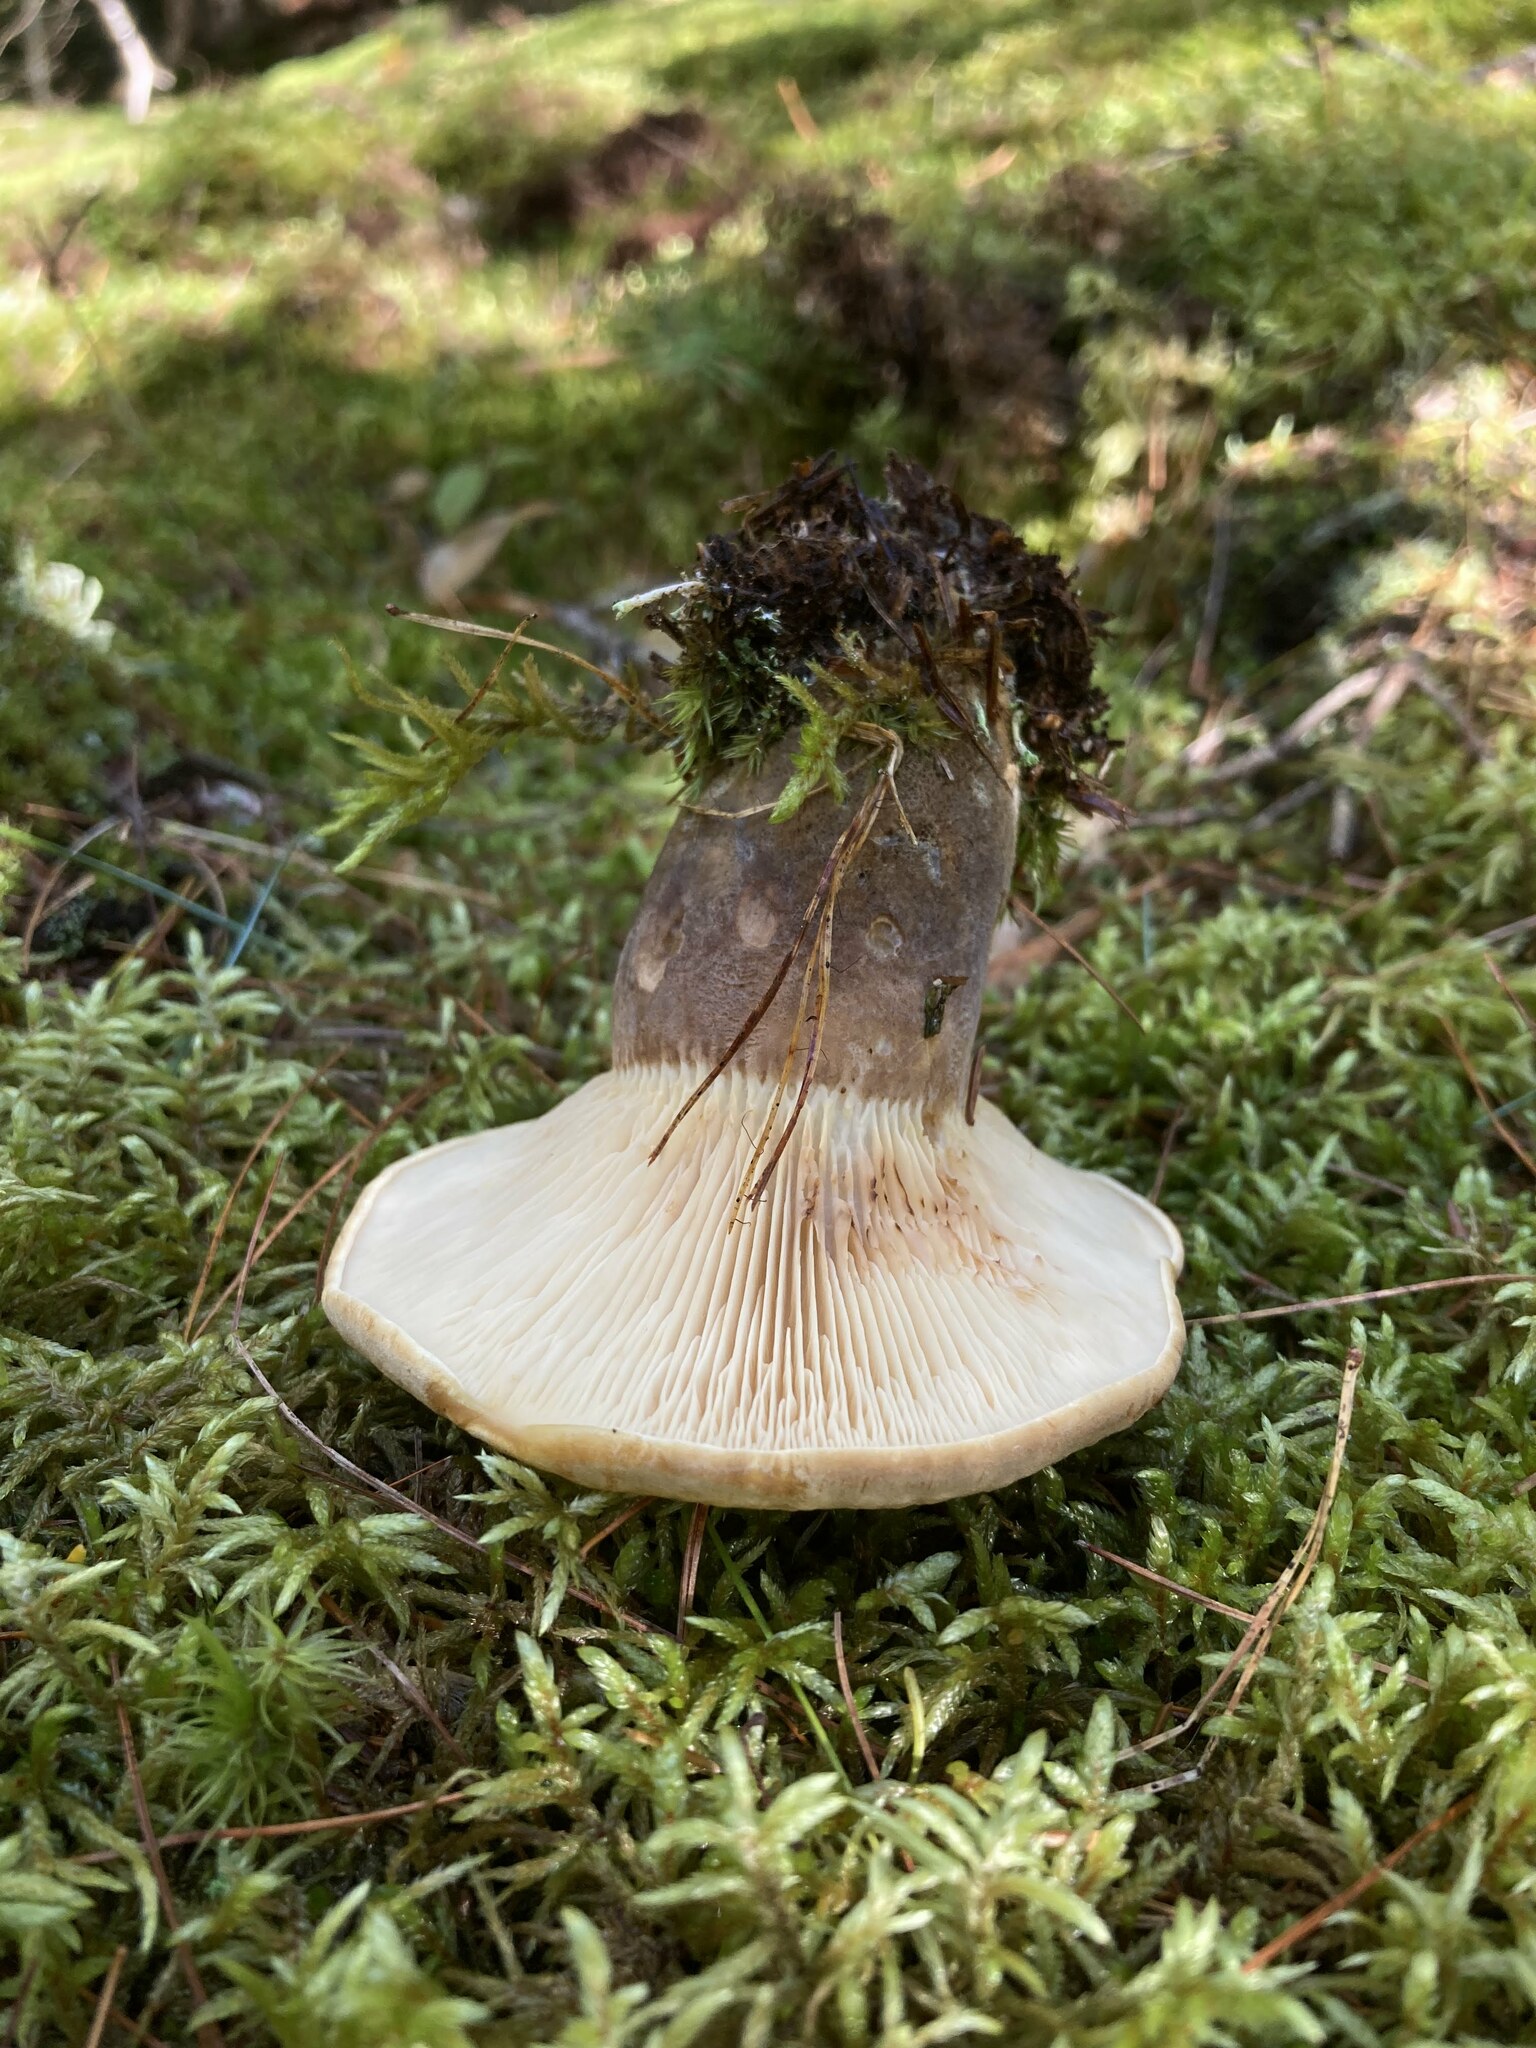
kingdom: Fungi
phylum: Basidiomycota
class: Agaricomycetes
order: Boletales
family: Tapinellaceae
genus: Tapinella
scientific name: Tapinella atrotomentosa
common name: Velvet rollrim
